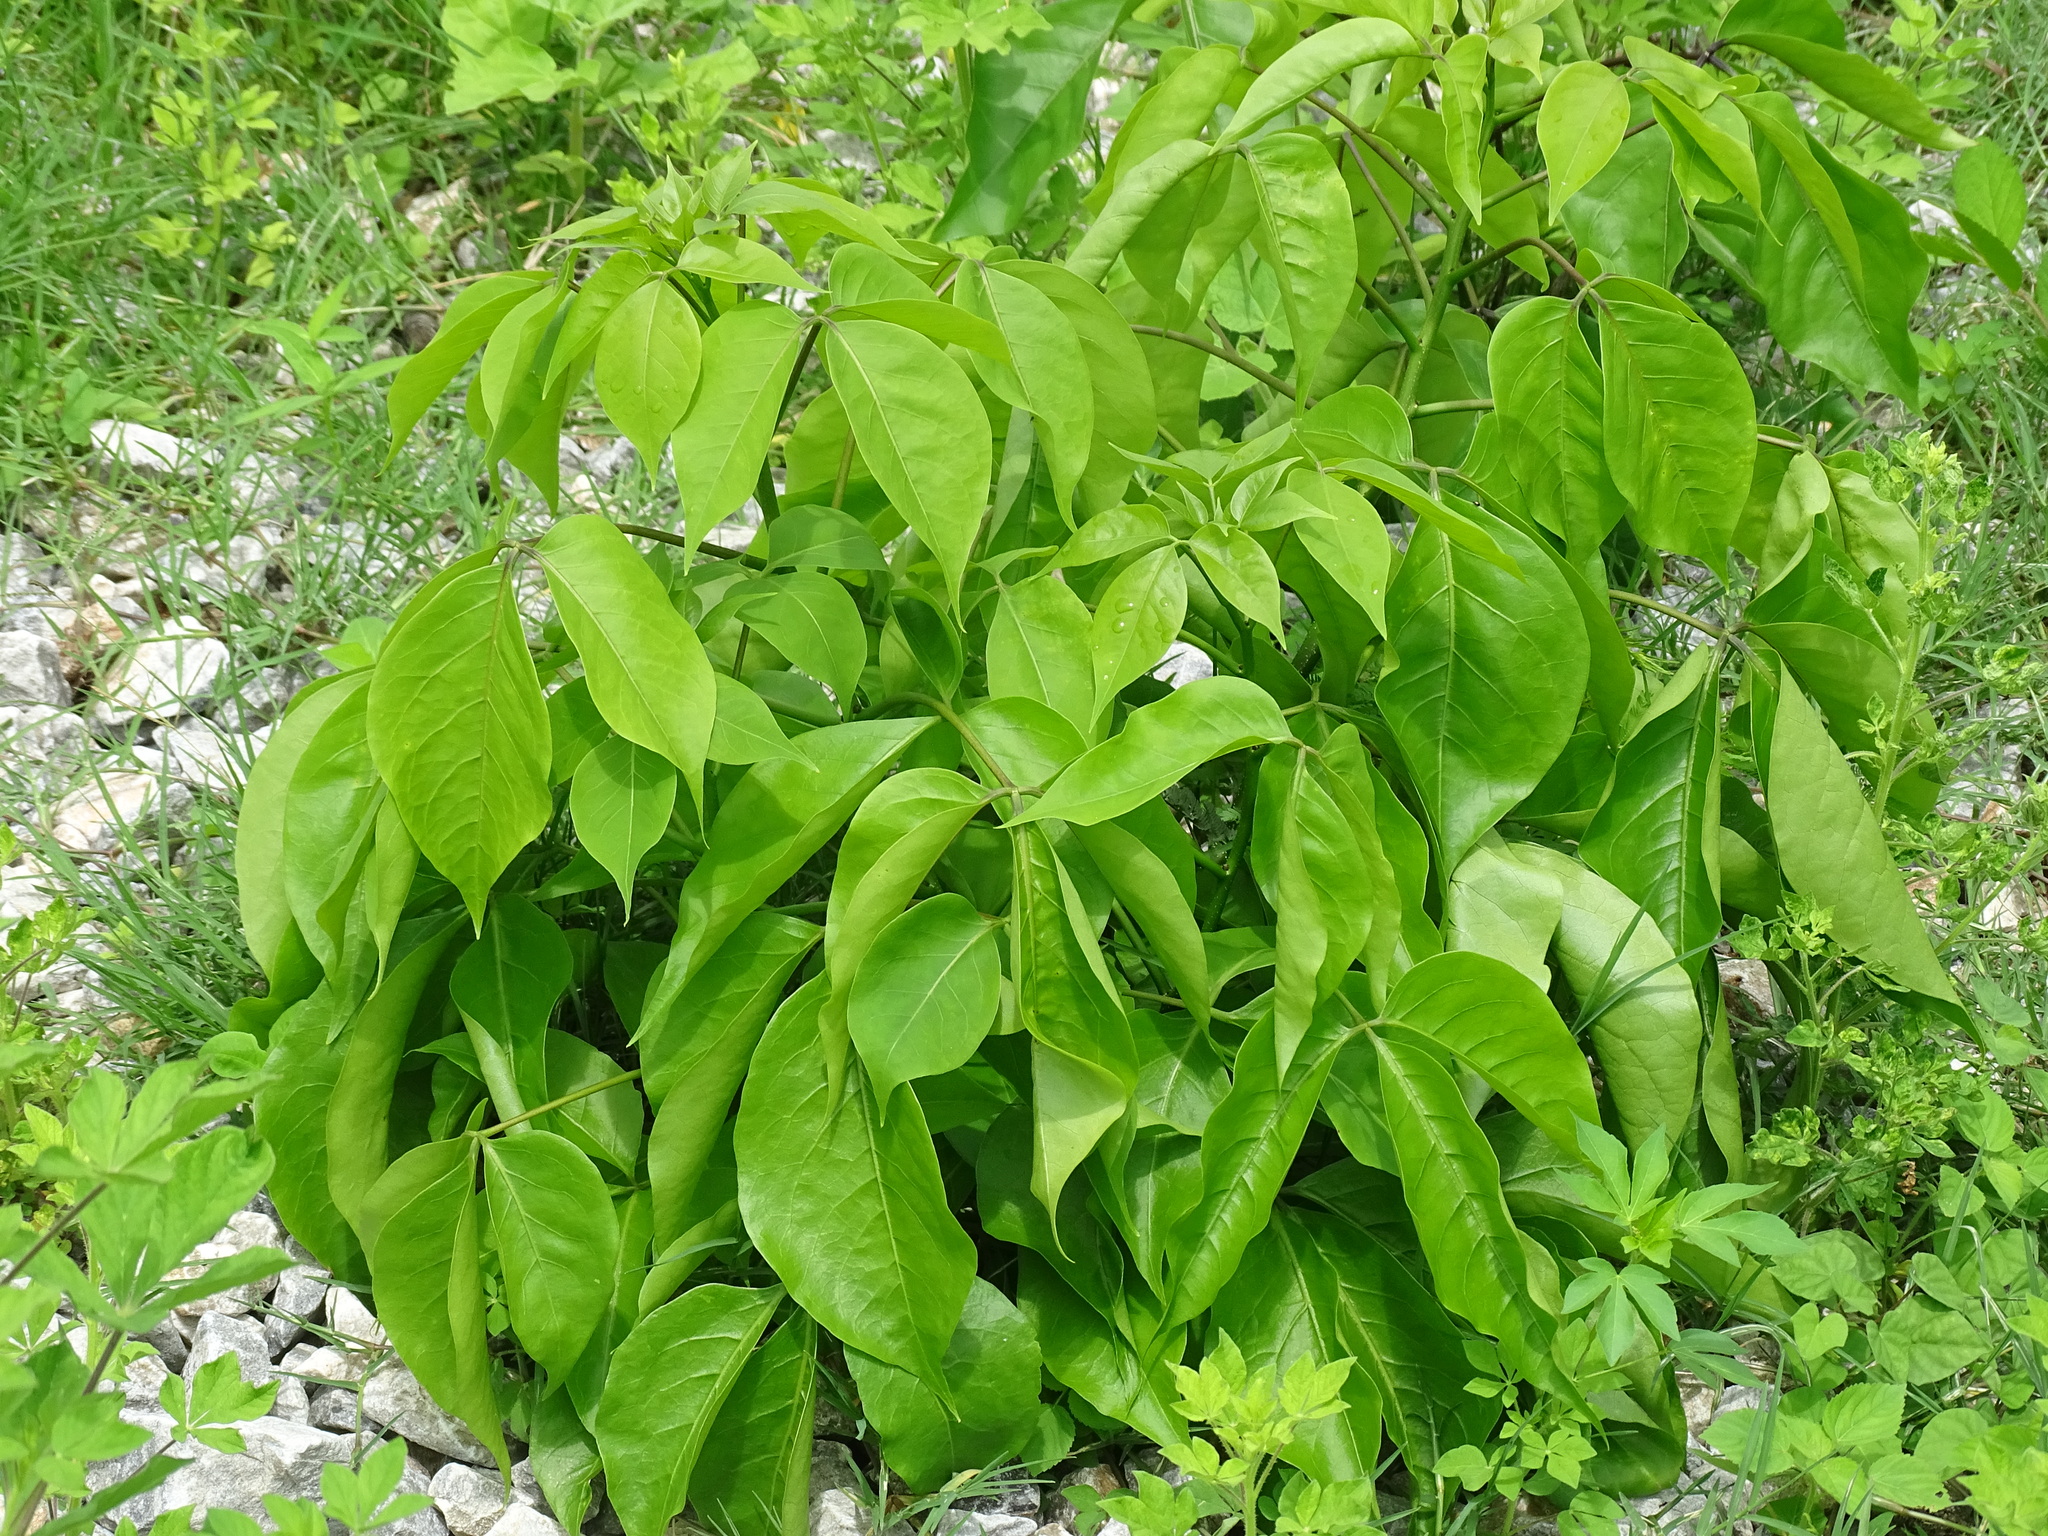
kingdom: Plantae
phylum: Tracheophyta
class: Magnoliopsida
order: Brassicales
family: Capparaceae
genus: Crateva
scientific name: Crateva tapia
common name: Garlic-pear
